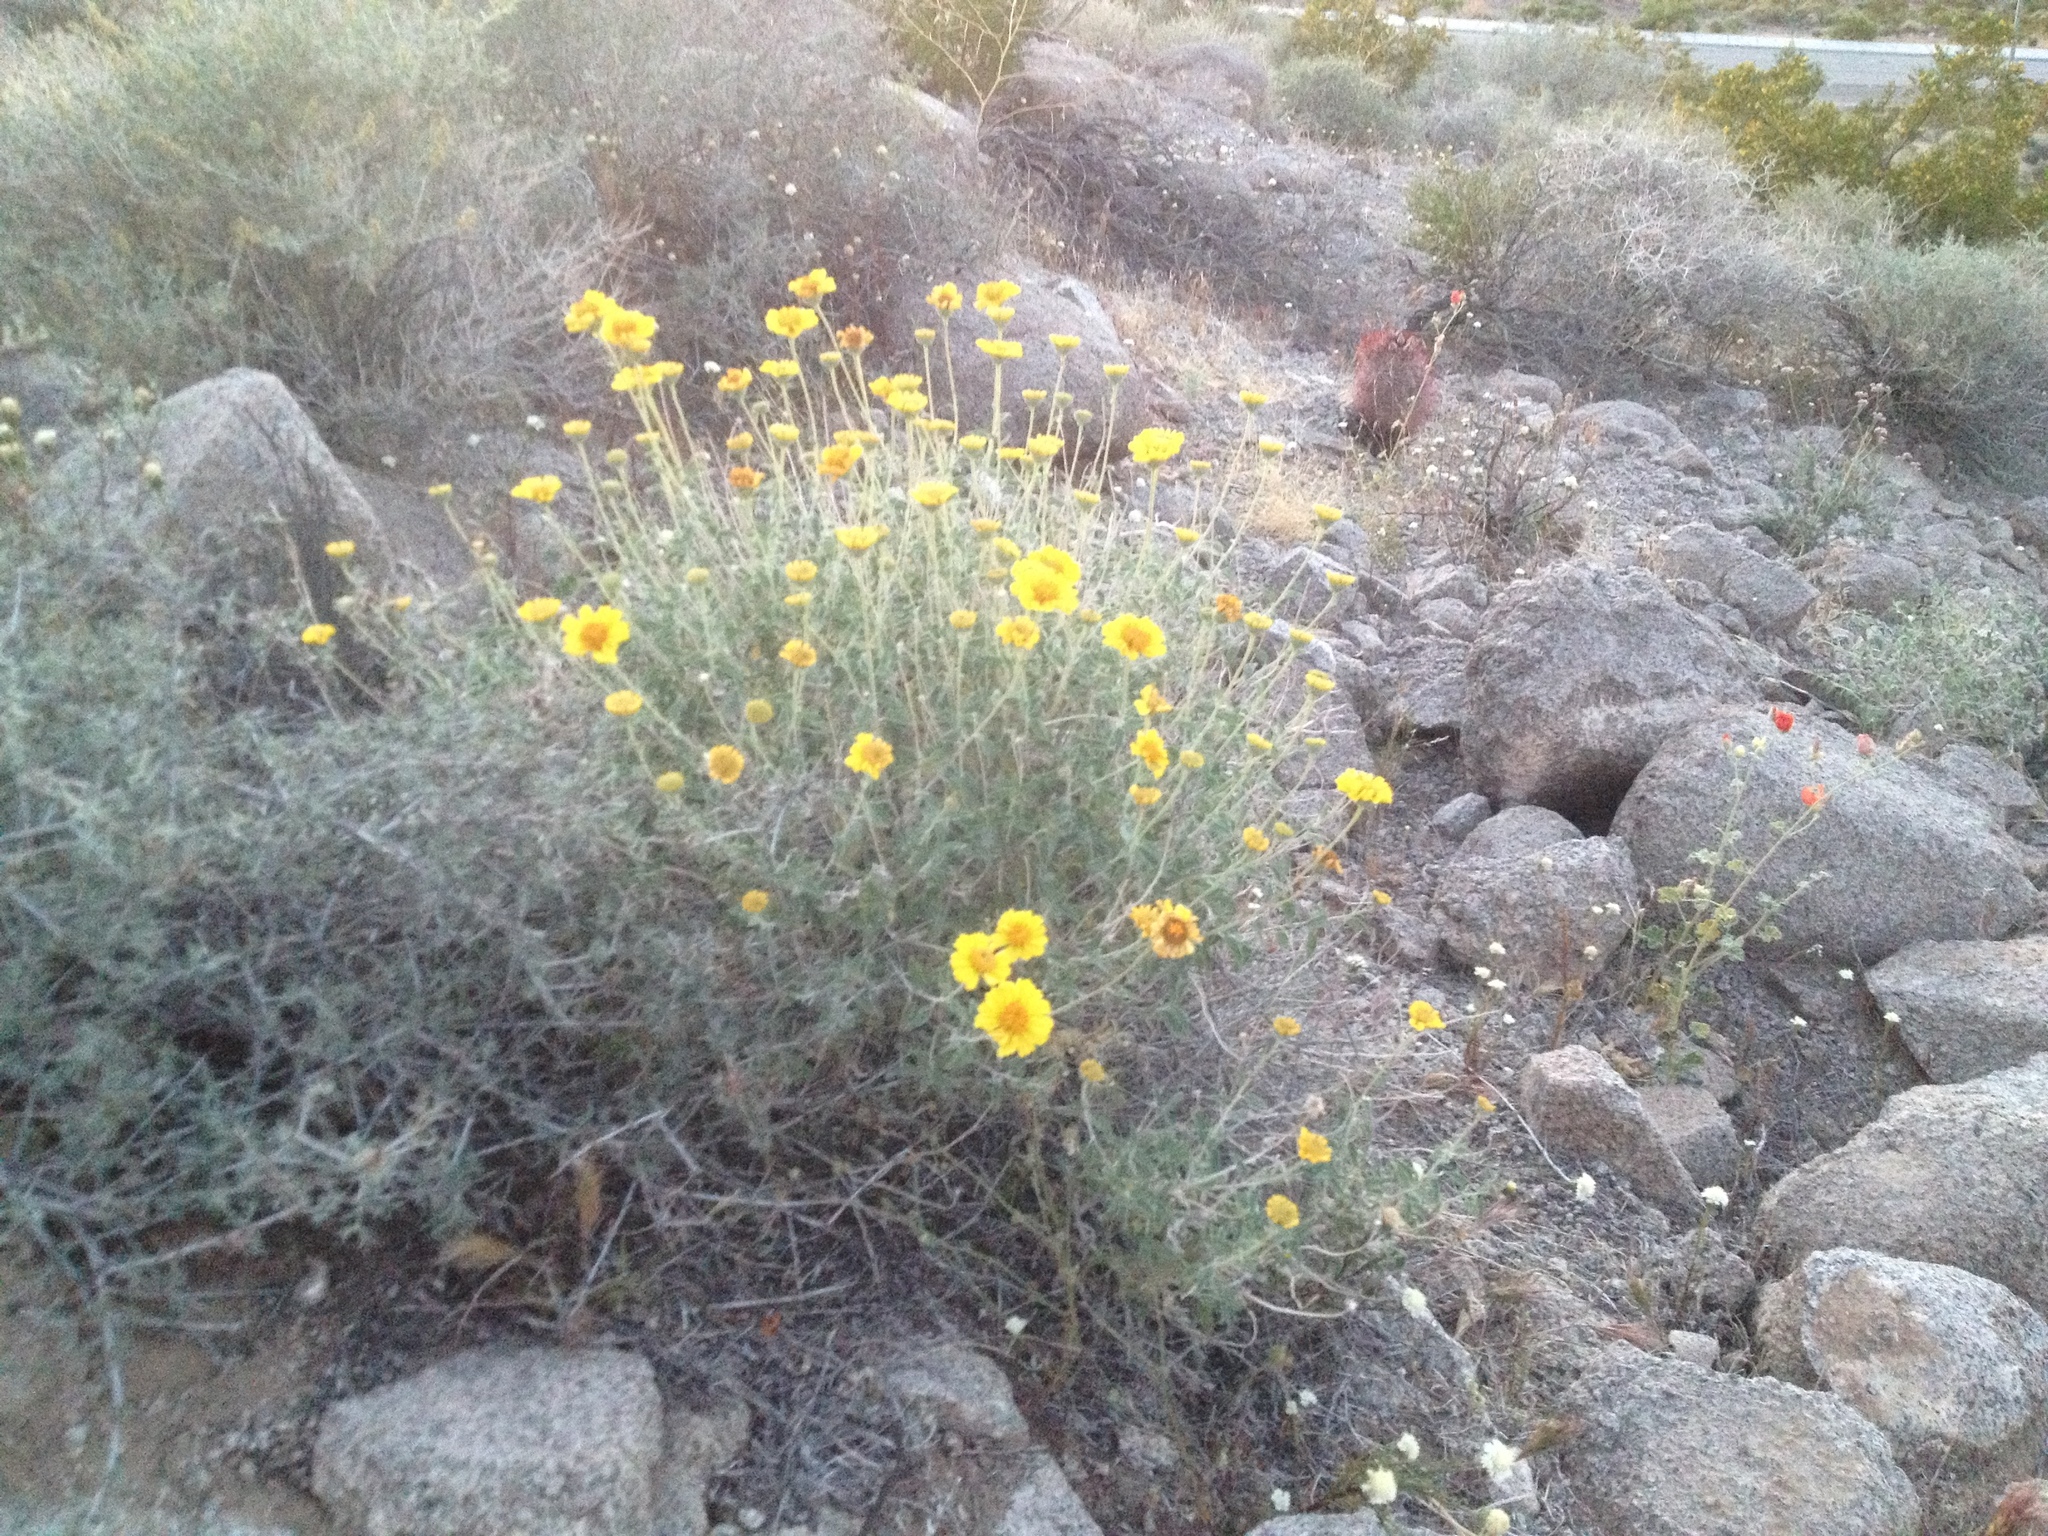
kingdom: Plantae
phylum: Tracheophyta
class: Magnoliopsida
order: Asterales
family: Asteraceae
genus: Encelia
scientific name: Encelia virginensis
